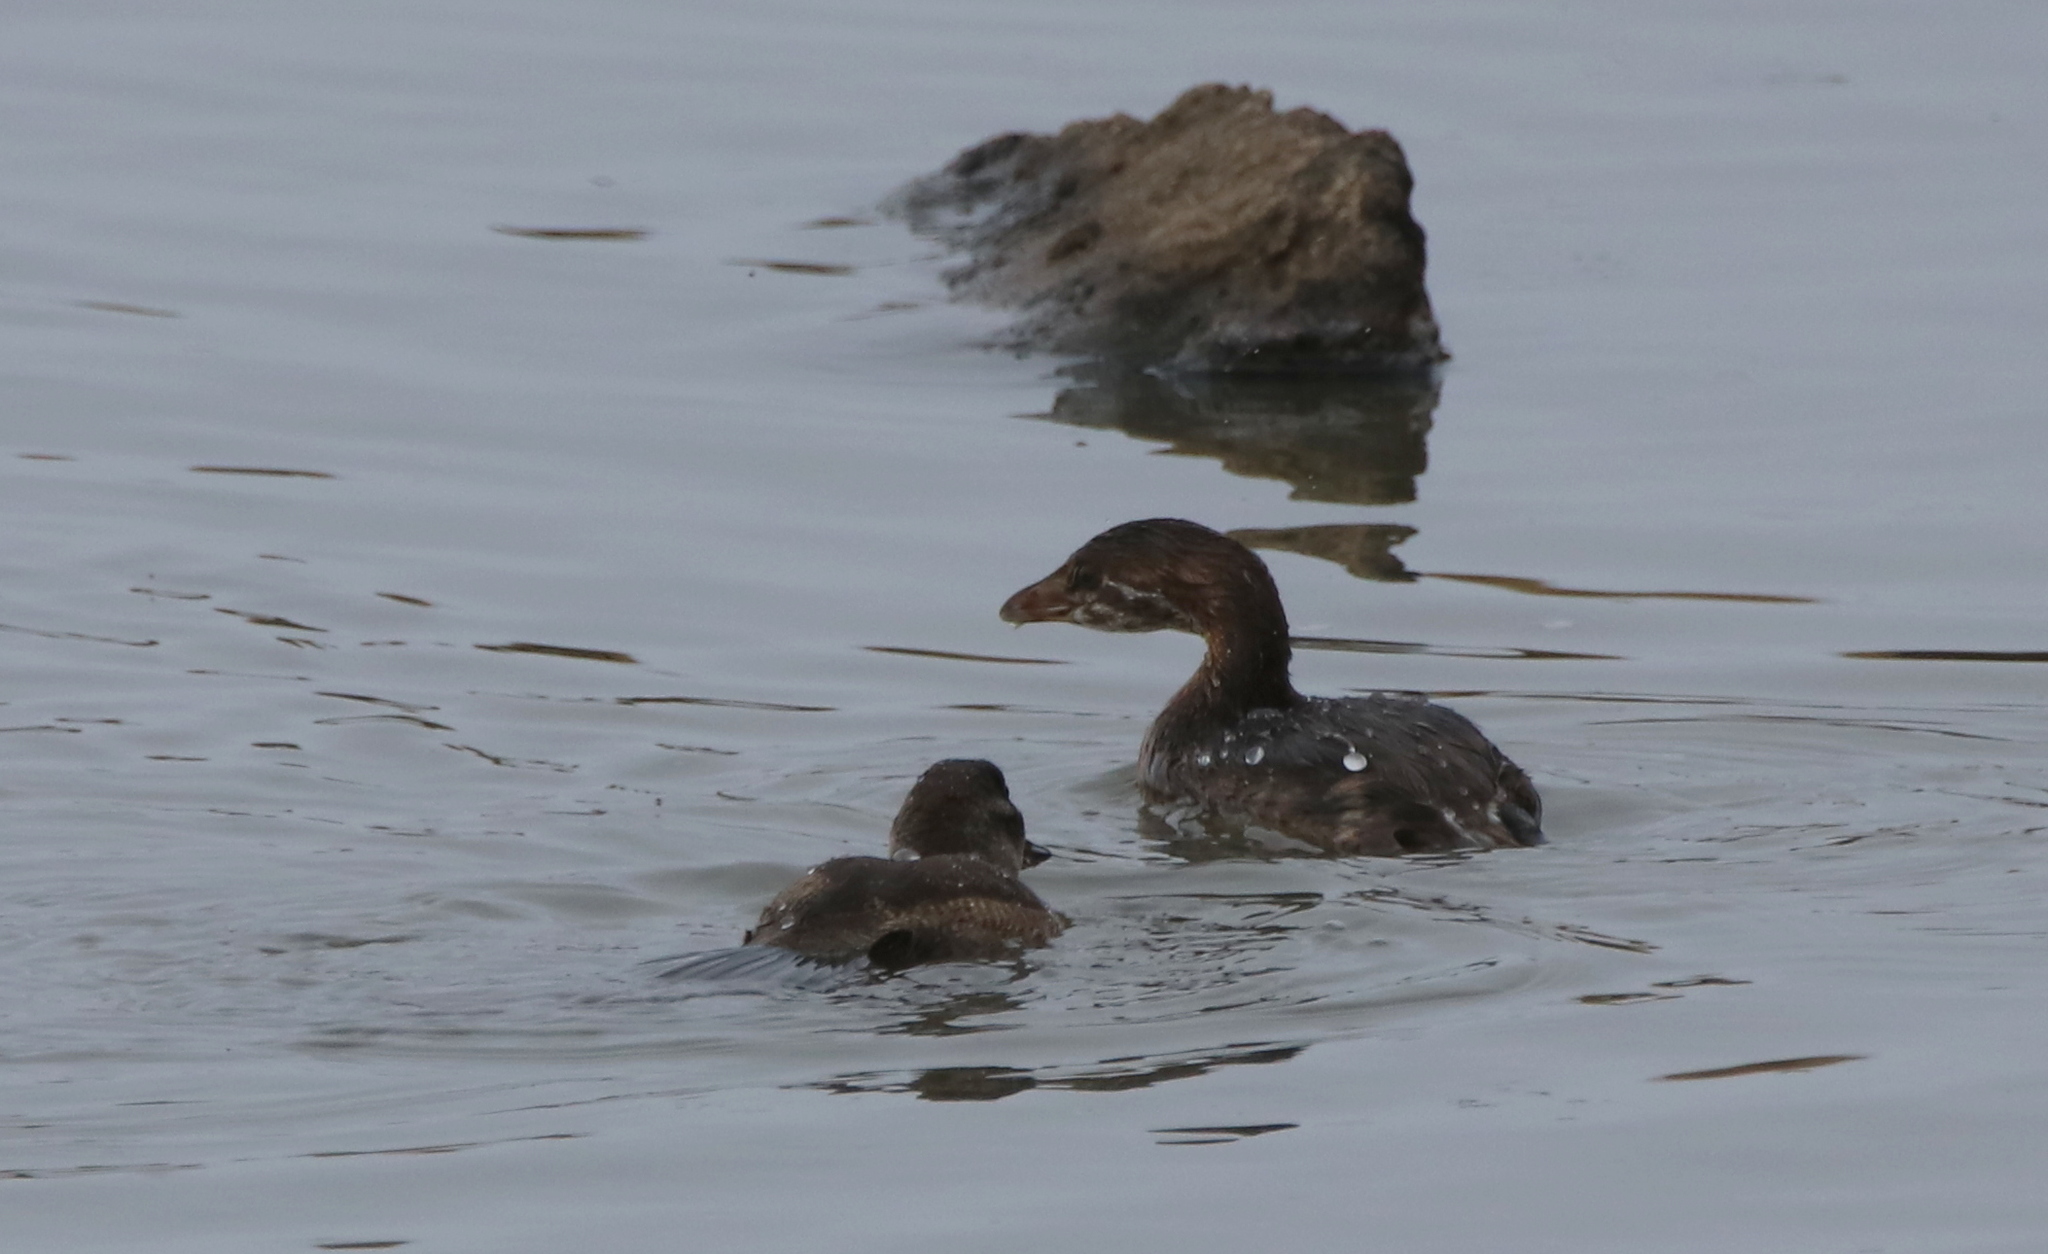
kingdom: Animalia
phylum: Chordata
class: Aves
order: Podicipediformes
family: Podicipedidae
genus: Podilymbus
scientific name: Podilymbus podiceps
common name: Pied-billed grebe
